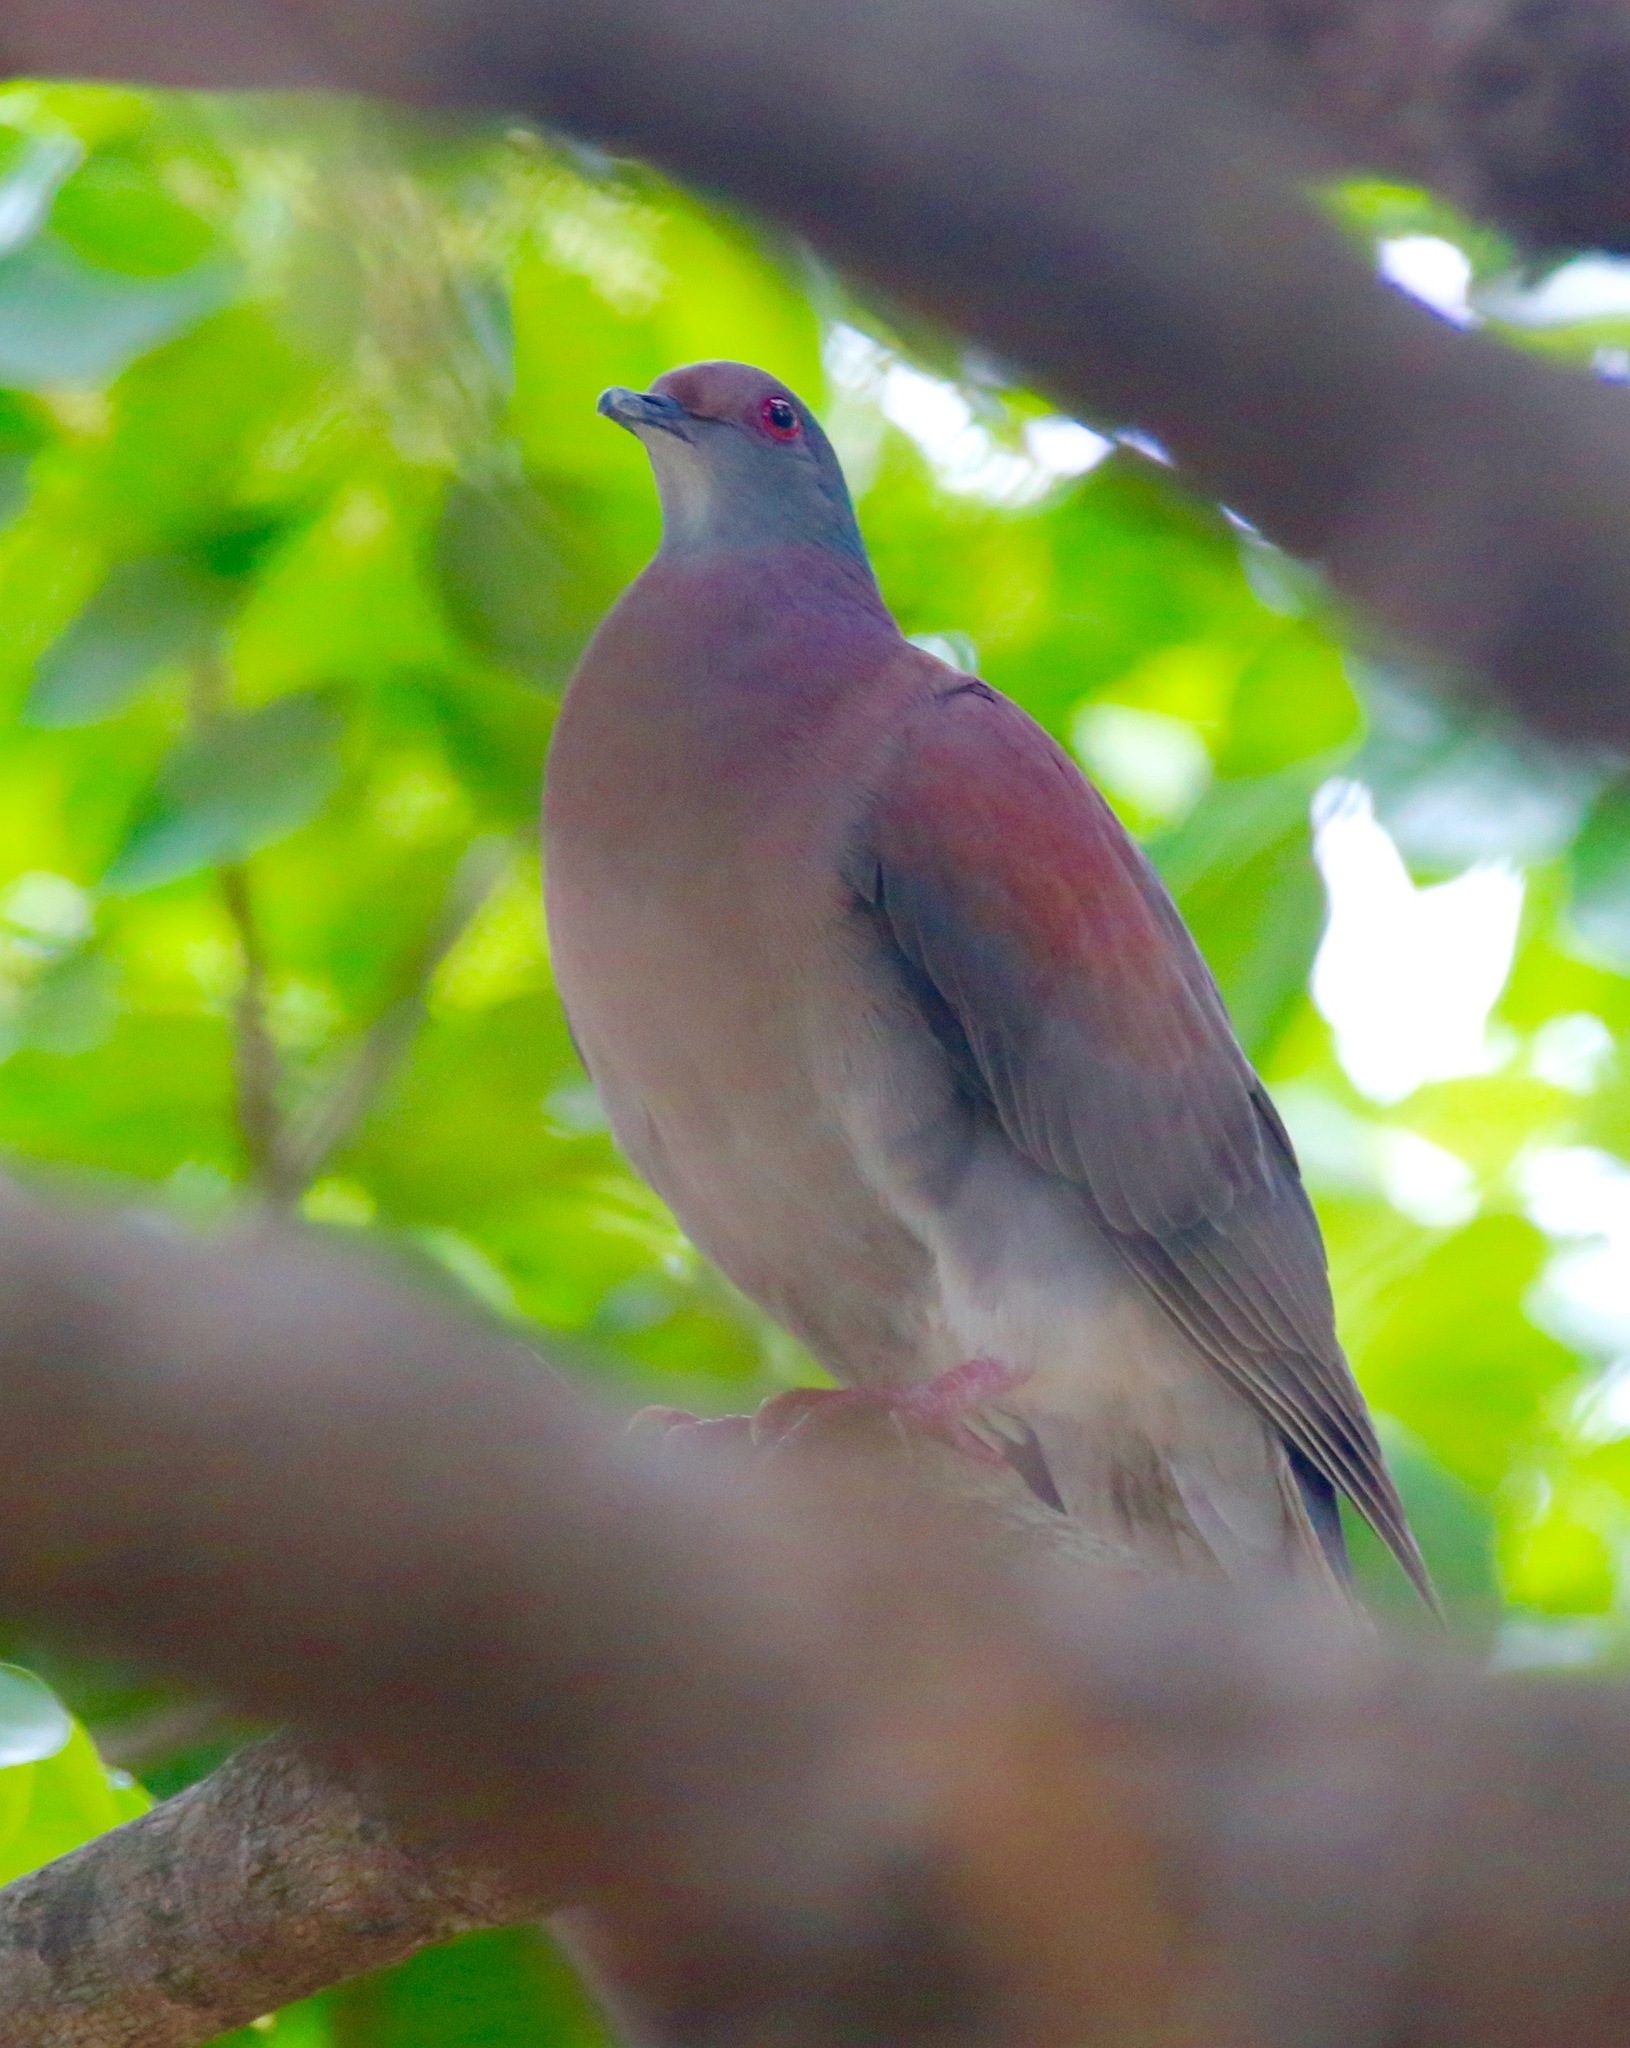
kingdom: Animalia
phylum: Chordata
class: Aves
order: Columbiformes
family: Columbidae
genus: Patagioenas
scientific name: Patagioenas cayennensis
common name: Pale-vented pigeon
